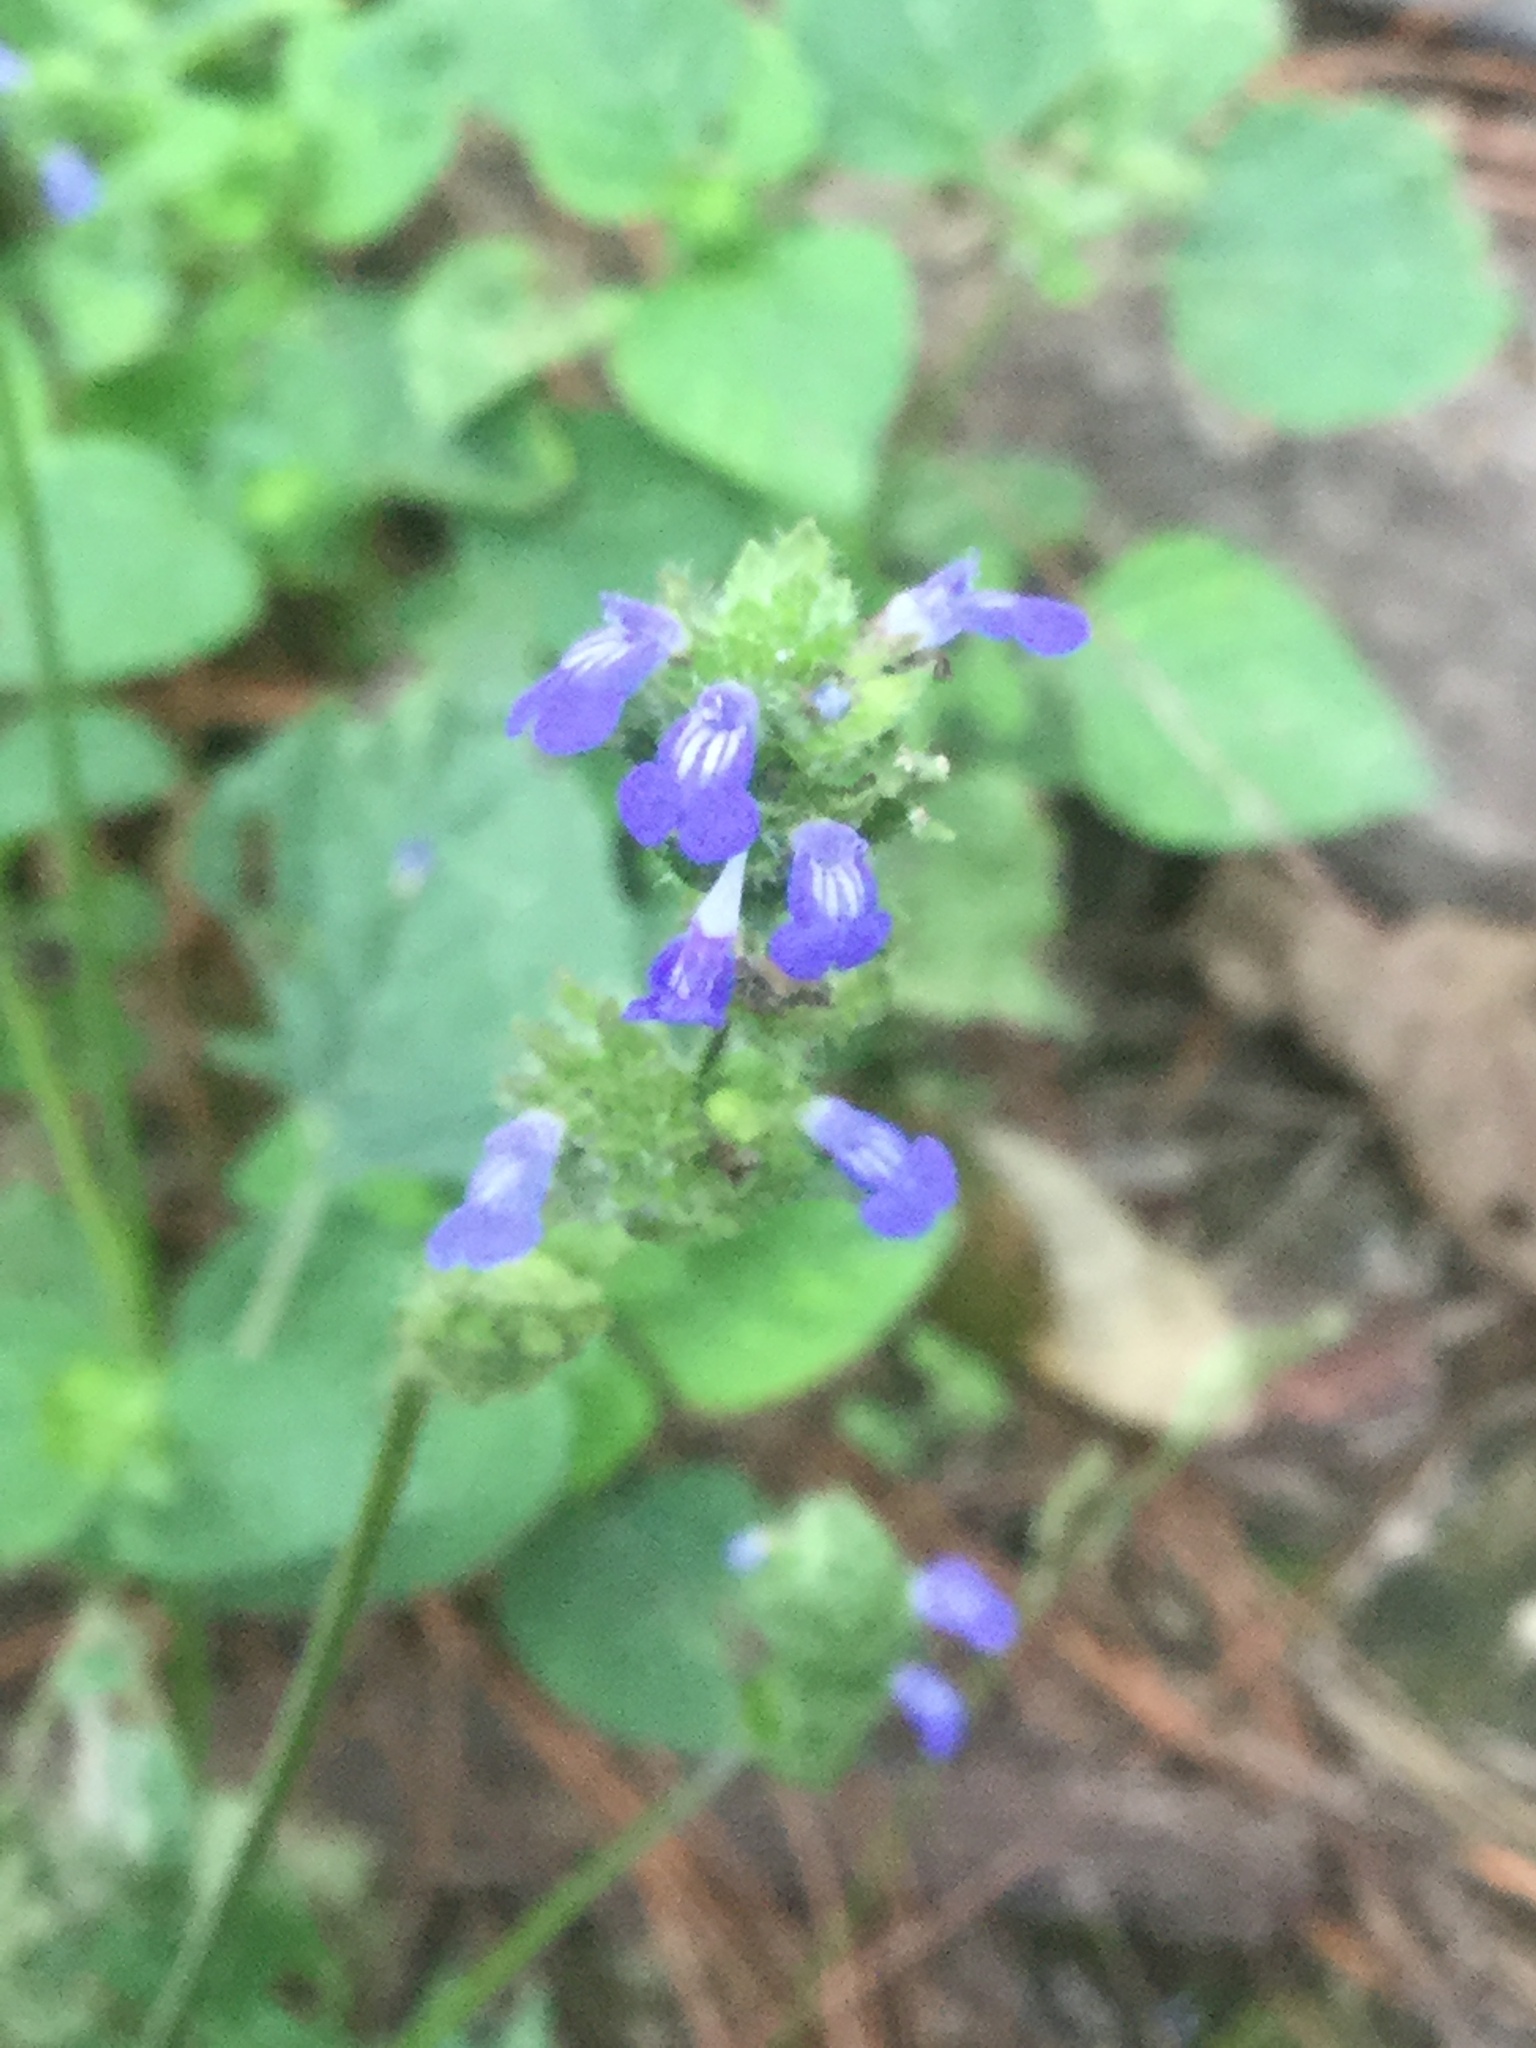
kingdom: Plantae
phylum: Tracheophyta
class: Magnoliopsida
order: Lamiales
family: Lamiaceae
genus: Salvia
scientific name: Salvia lasiocephala
